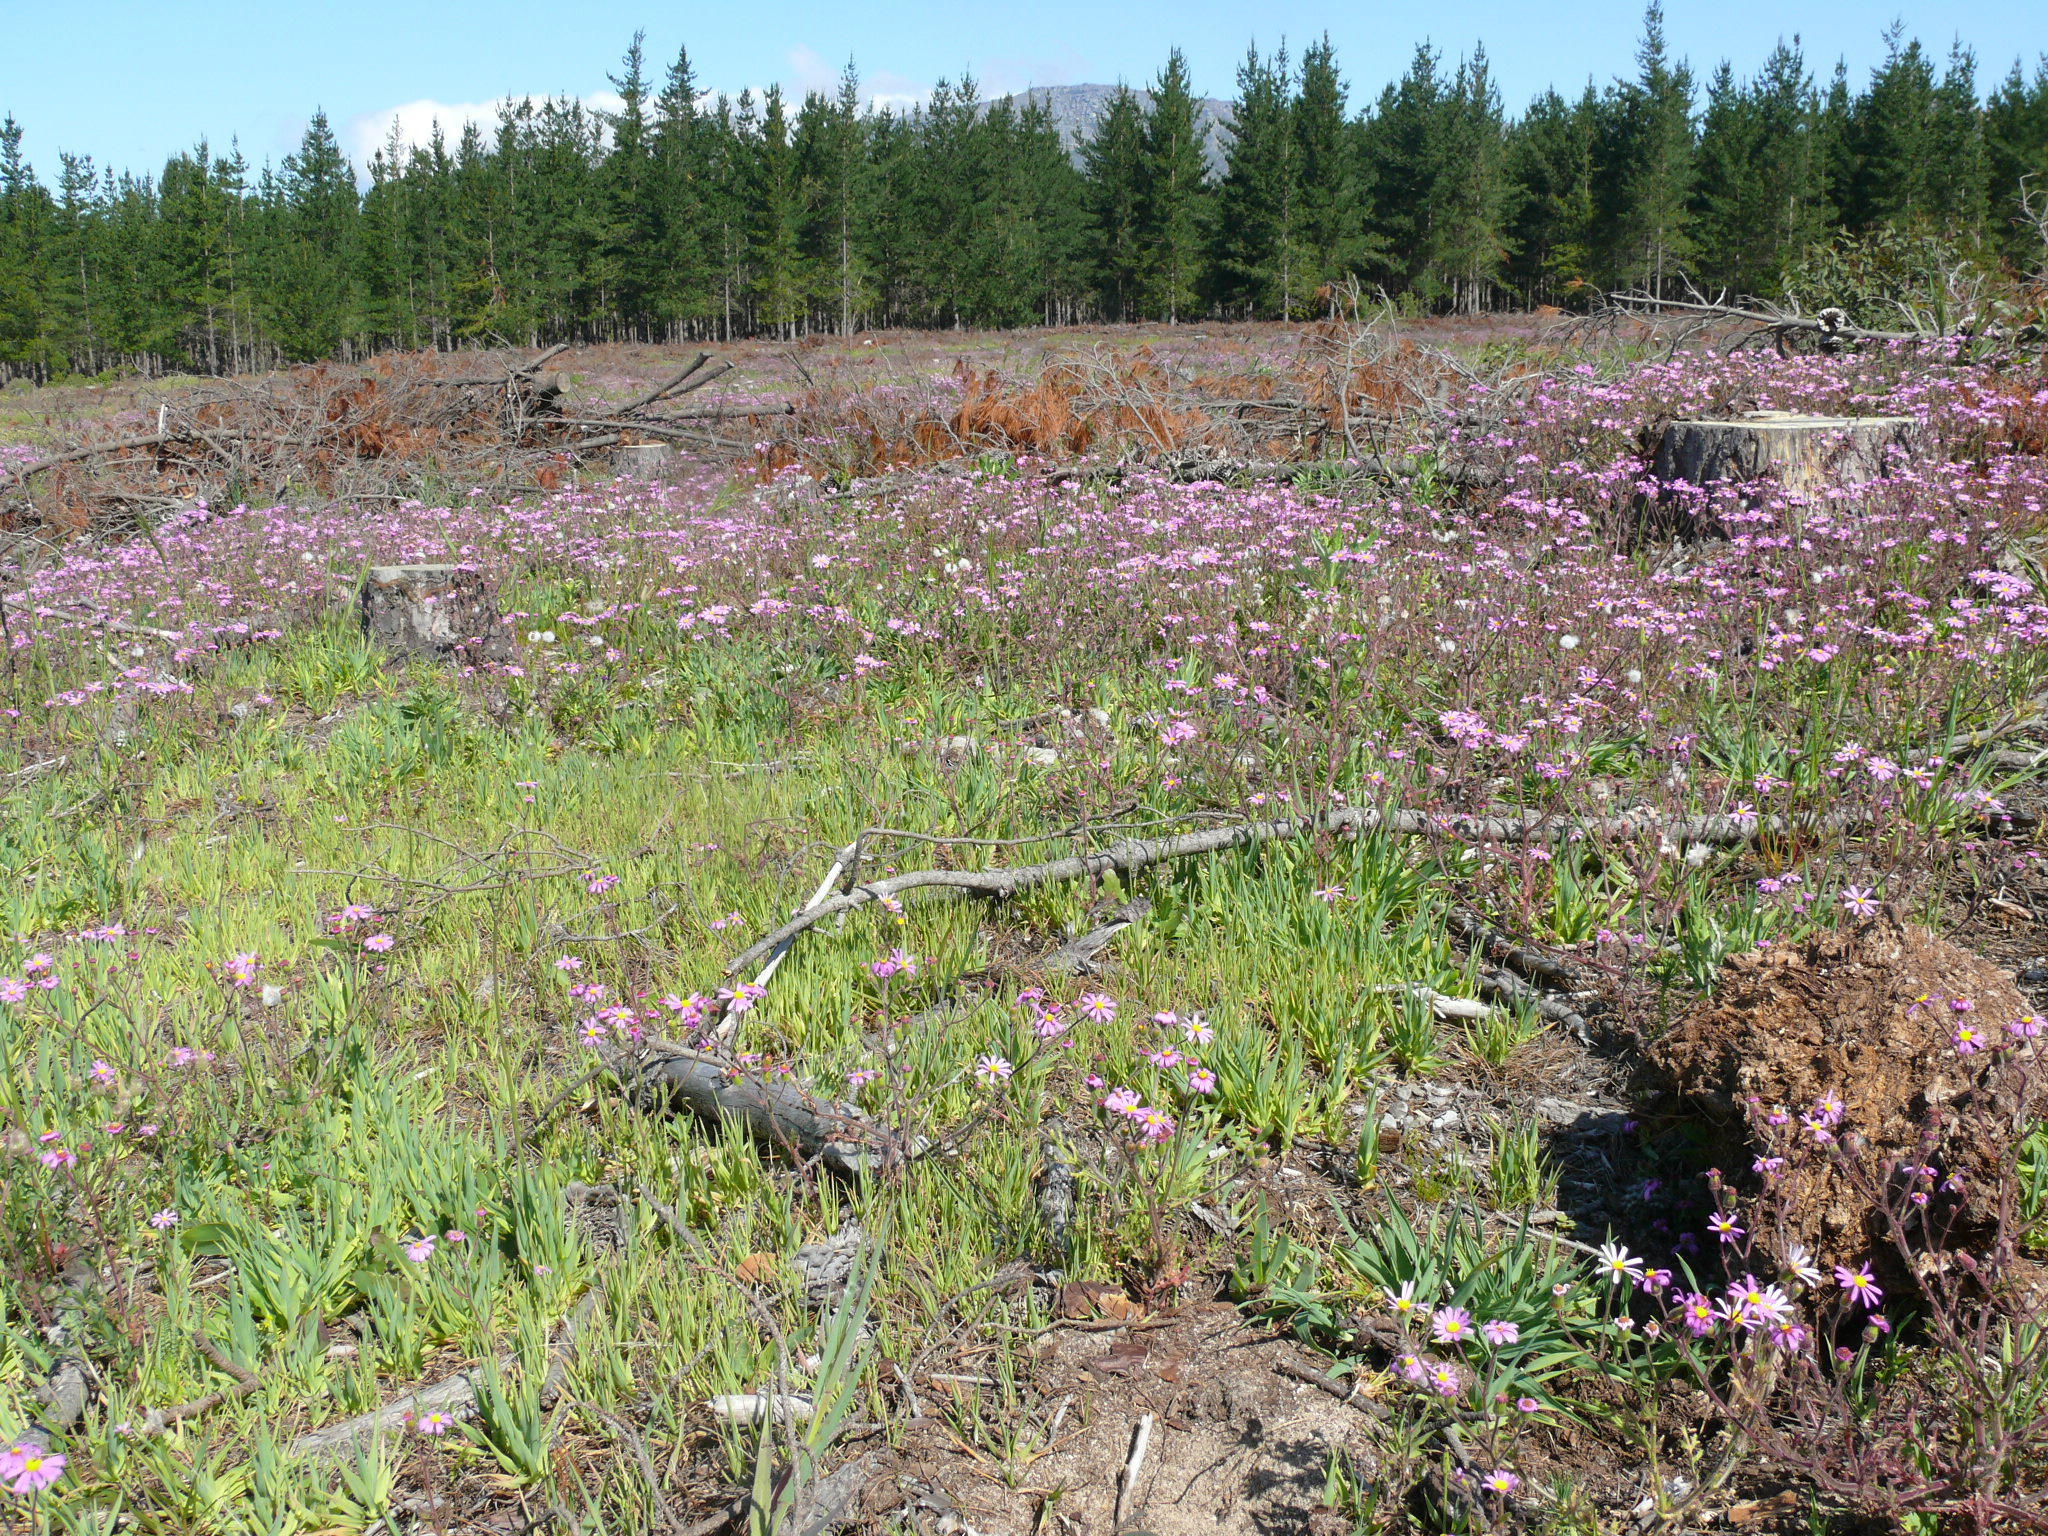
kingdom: Plantae
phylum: Tracheophyta
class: Magnoliopsida
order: Asterales
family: Asteraceae
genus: Senecio
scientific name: Senecio arenarius
